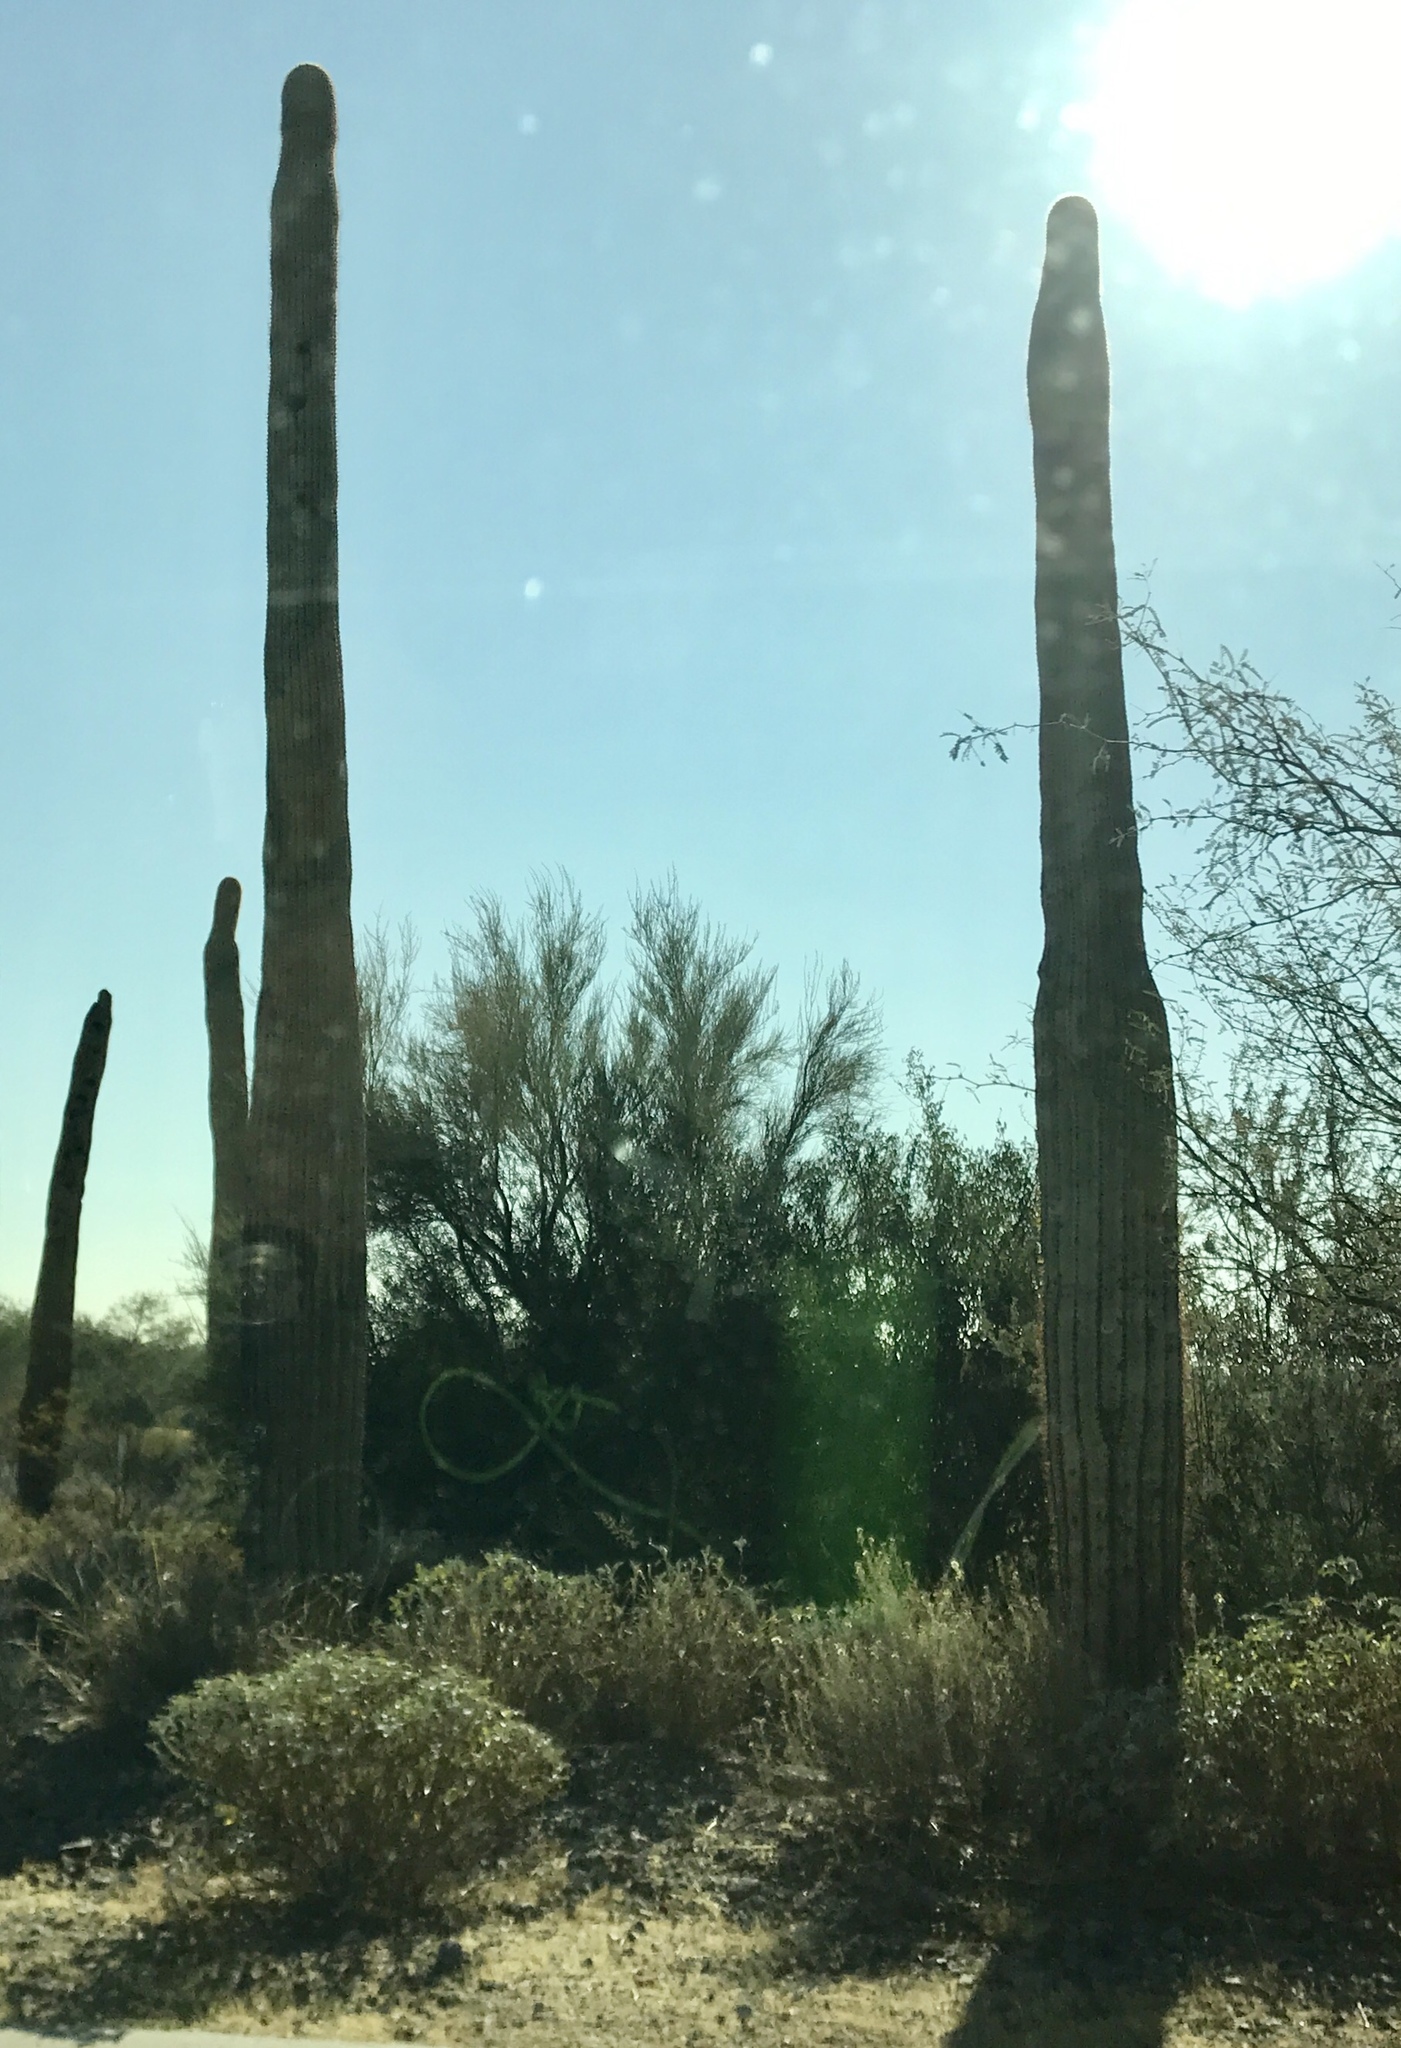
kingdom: Plantae
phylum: Tracheophyta
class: Magnoliopsida
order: Caryophyllales
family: Cactaceae
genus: Carnegiea
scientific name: Carnegiea gigantea
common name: Saguaro
